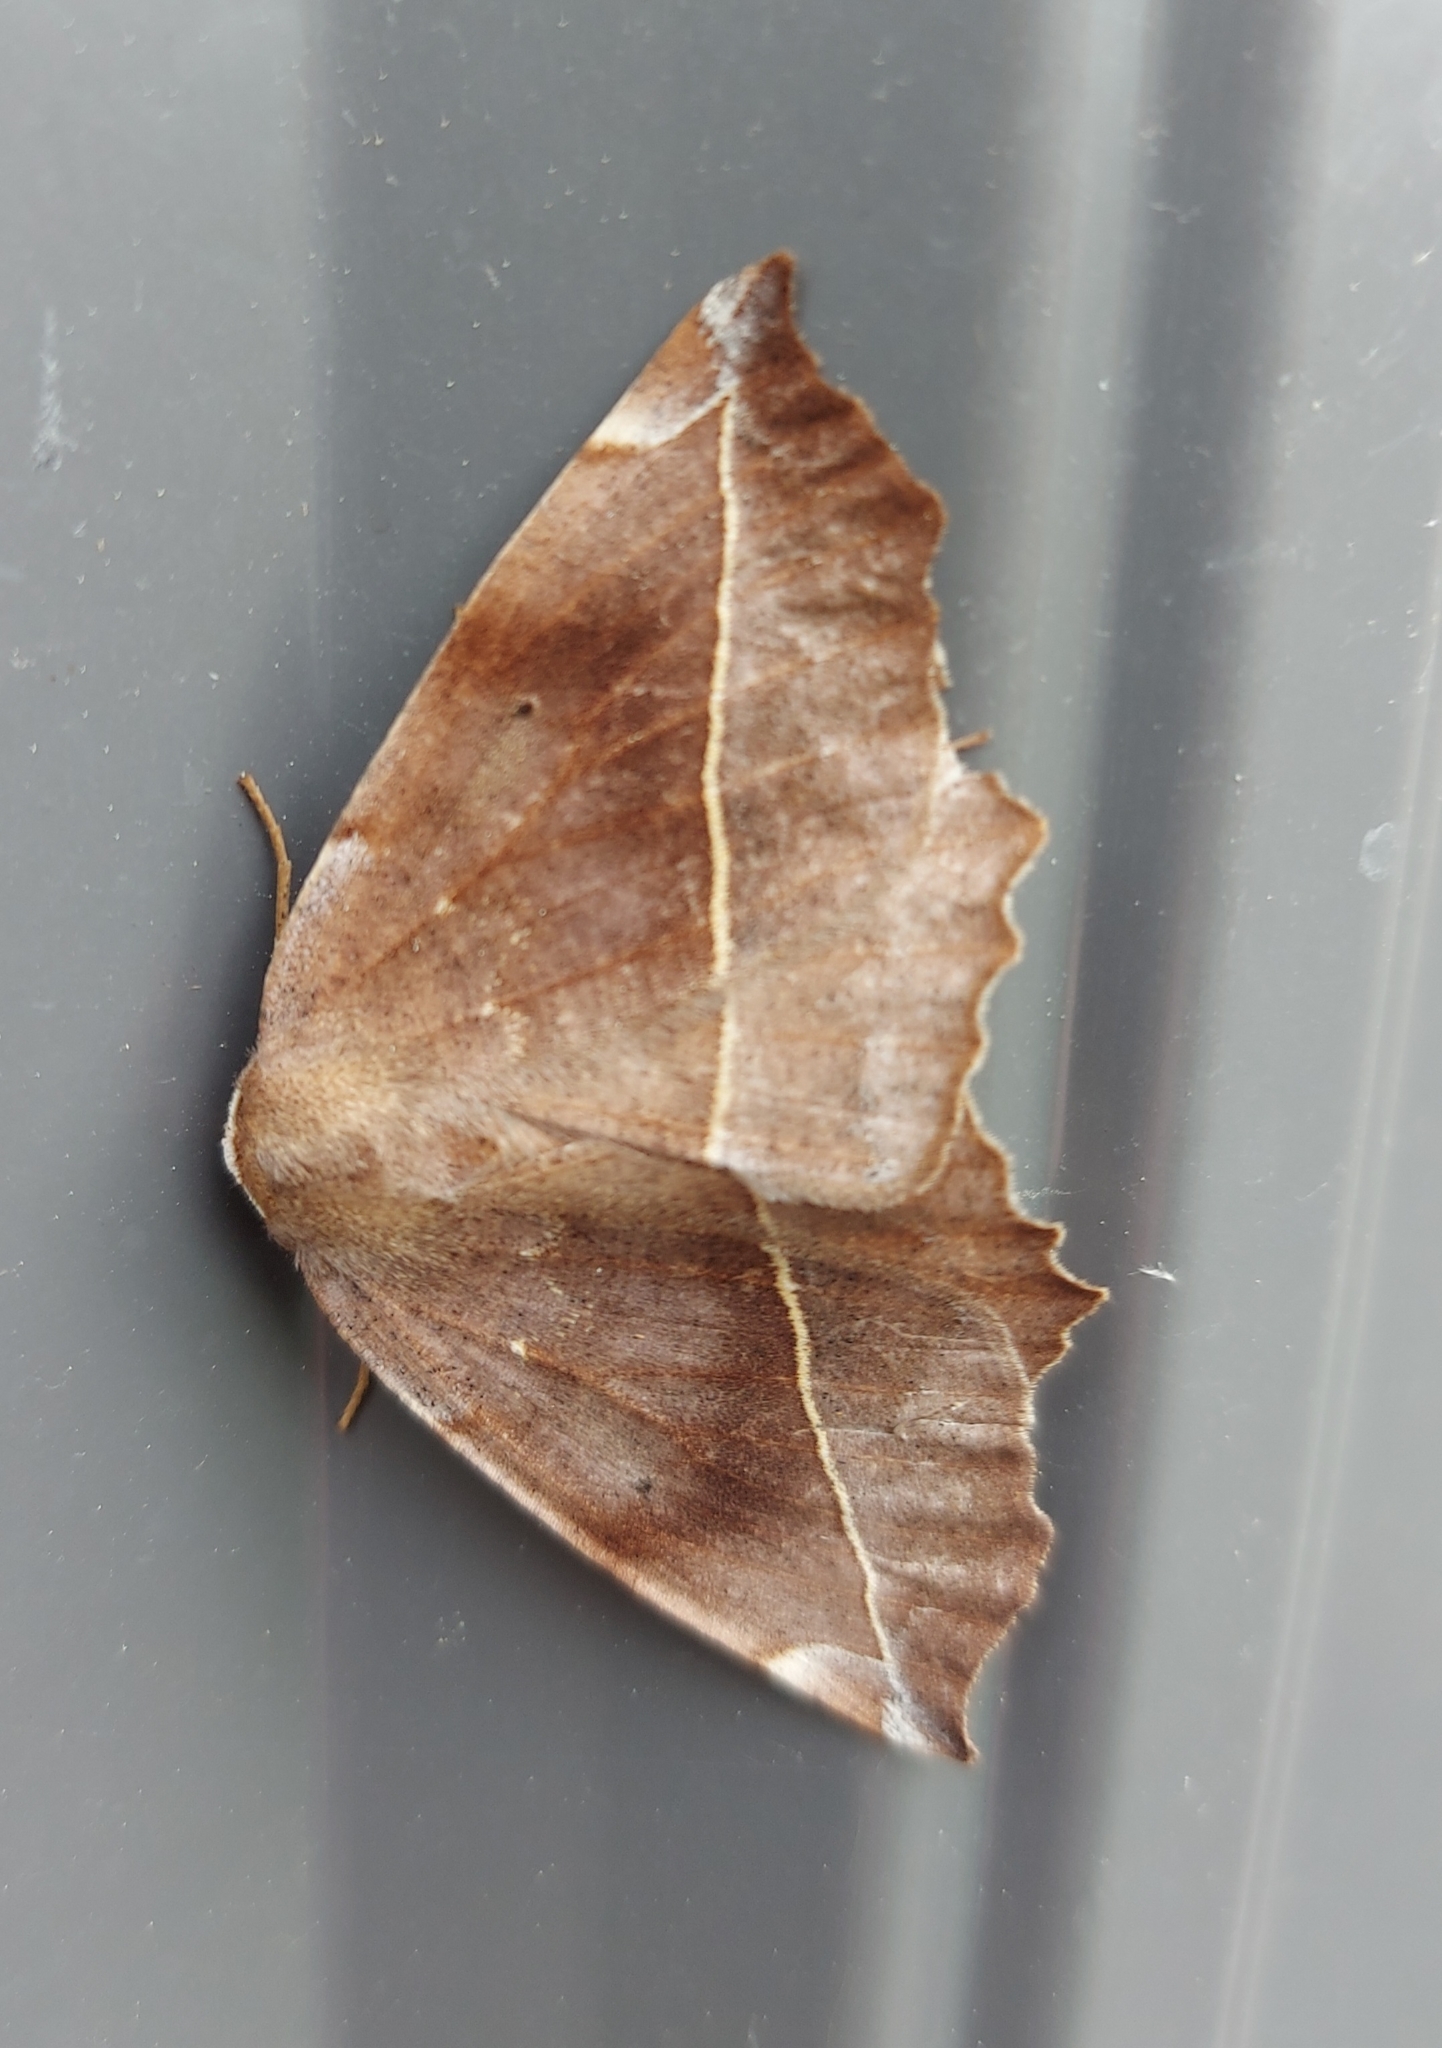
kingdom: Animalia
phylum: Arthropoda
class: Insecta
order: Lepidoptera
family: Geometridae
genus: Eutrapela
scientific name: Eutrapela clemataria
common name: Curved-toothed geometer
